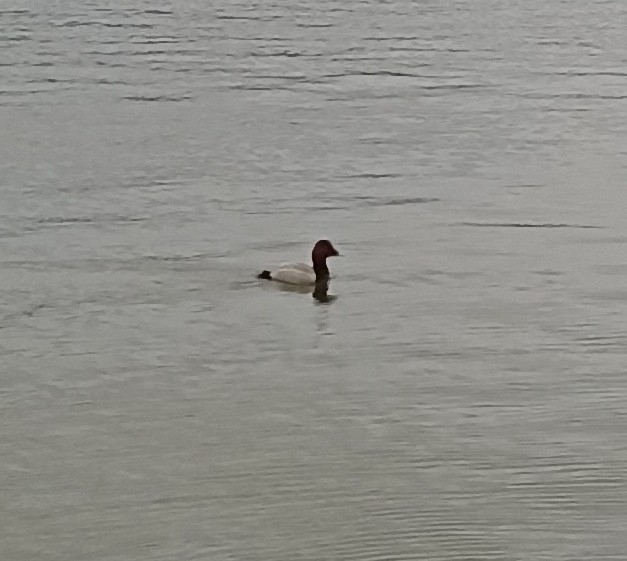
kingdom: Animalia
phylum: Chordata
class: Aves
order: Anseriformes
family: Anatidae
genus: Aythya
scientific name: Aythya ferina
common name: Common pochard
